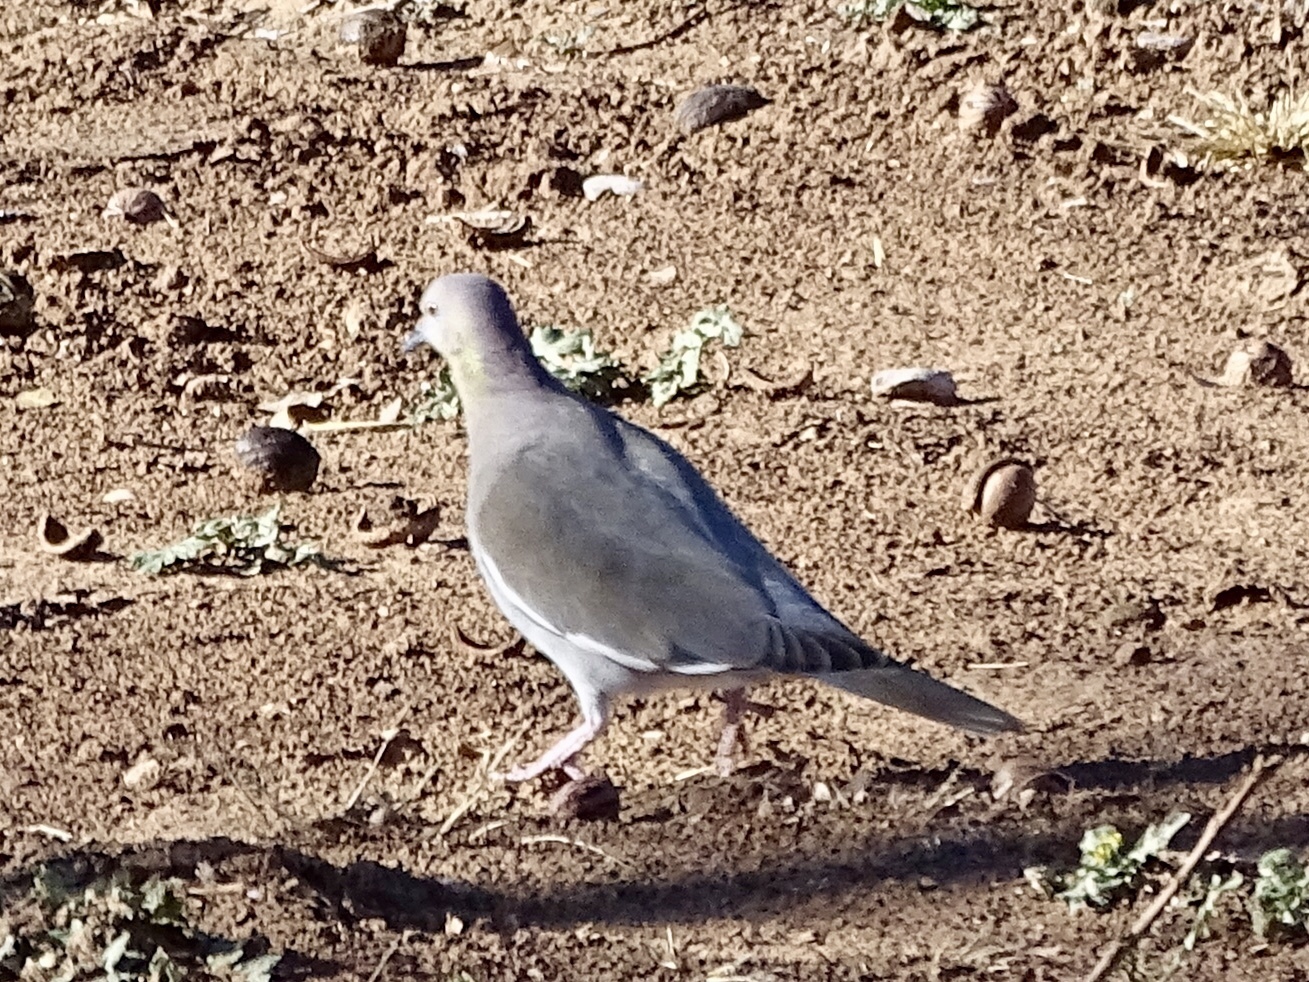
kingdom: Animalia
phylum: Chordata
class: Aves
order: Columbiformes
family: Columbidae
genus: Zenaida
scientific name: Zenaida asiatica
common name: White-winged dove
